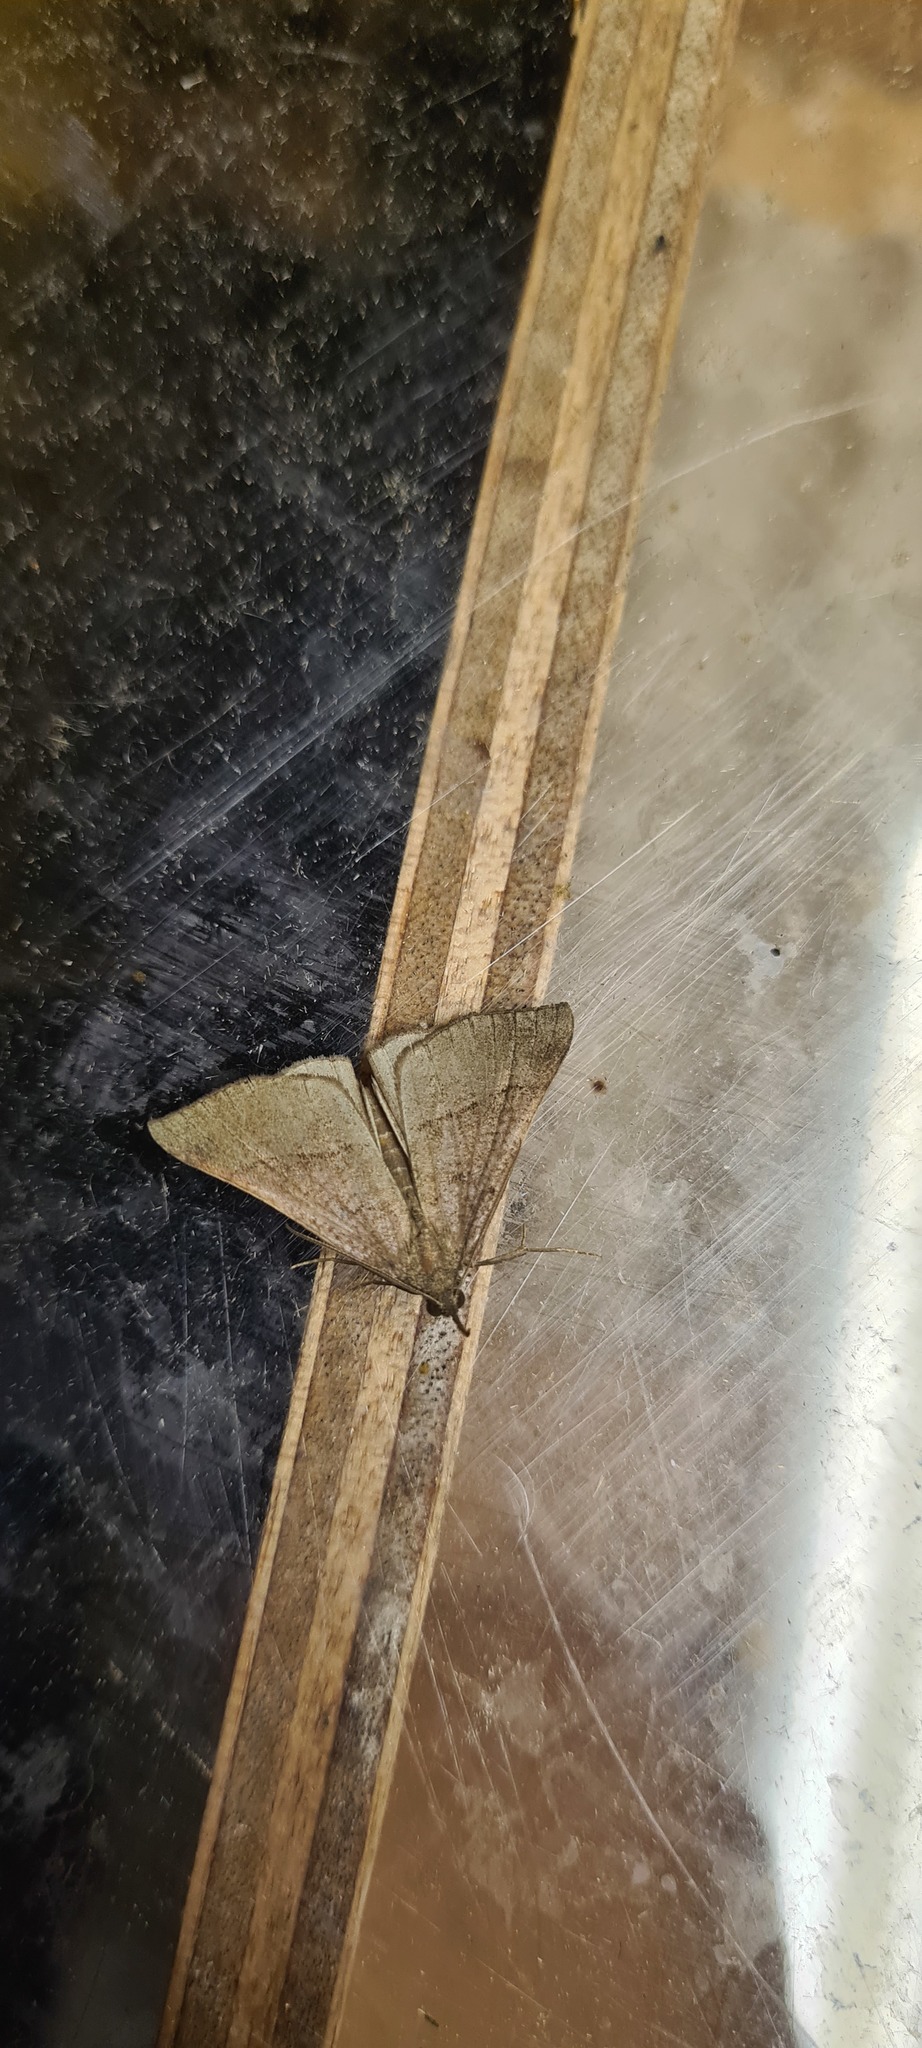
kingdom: Animalia
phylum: Arthropoda
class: Insecta
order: Lepidoptera
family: Erebidae
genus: Hypena
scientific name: Hypena proboscidalis
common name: Snout
